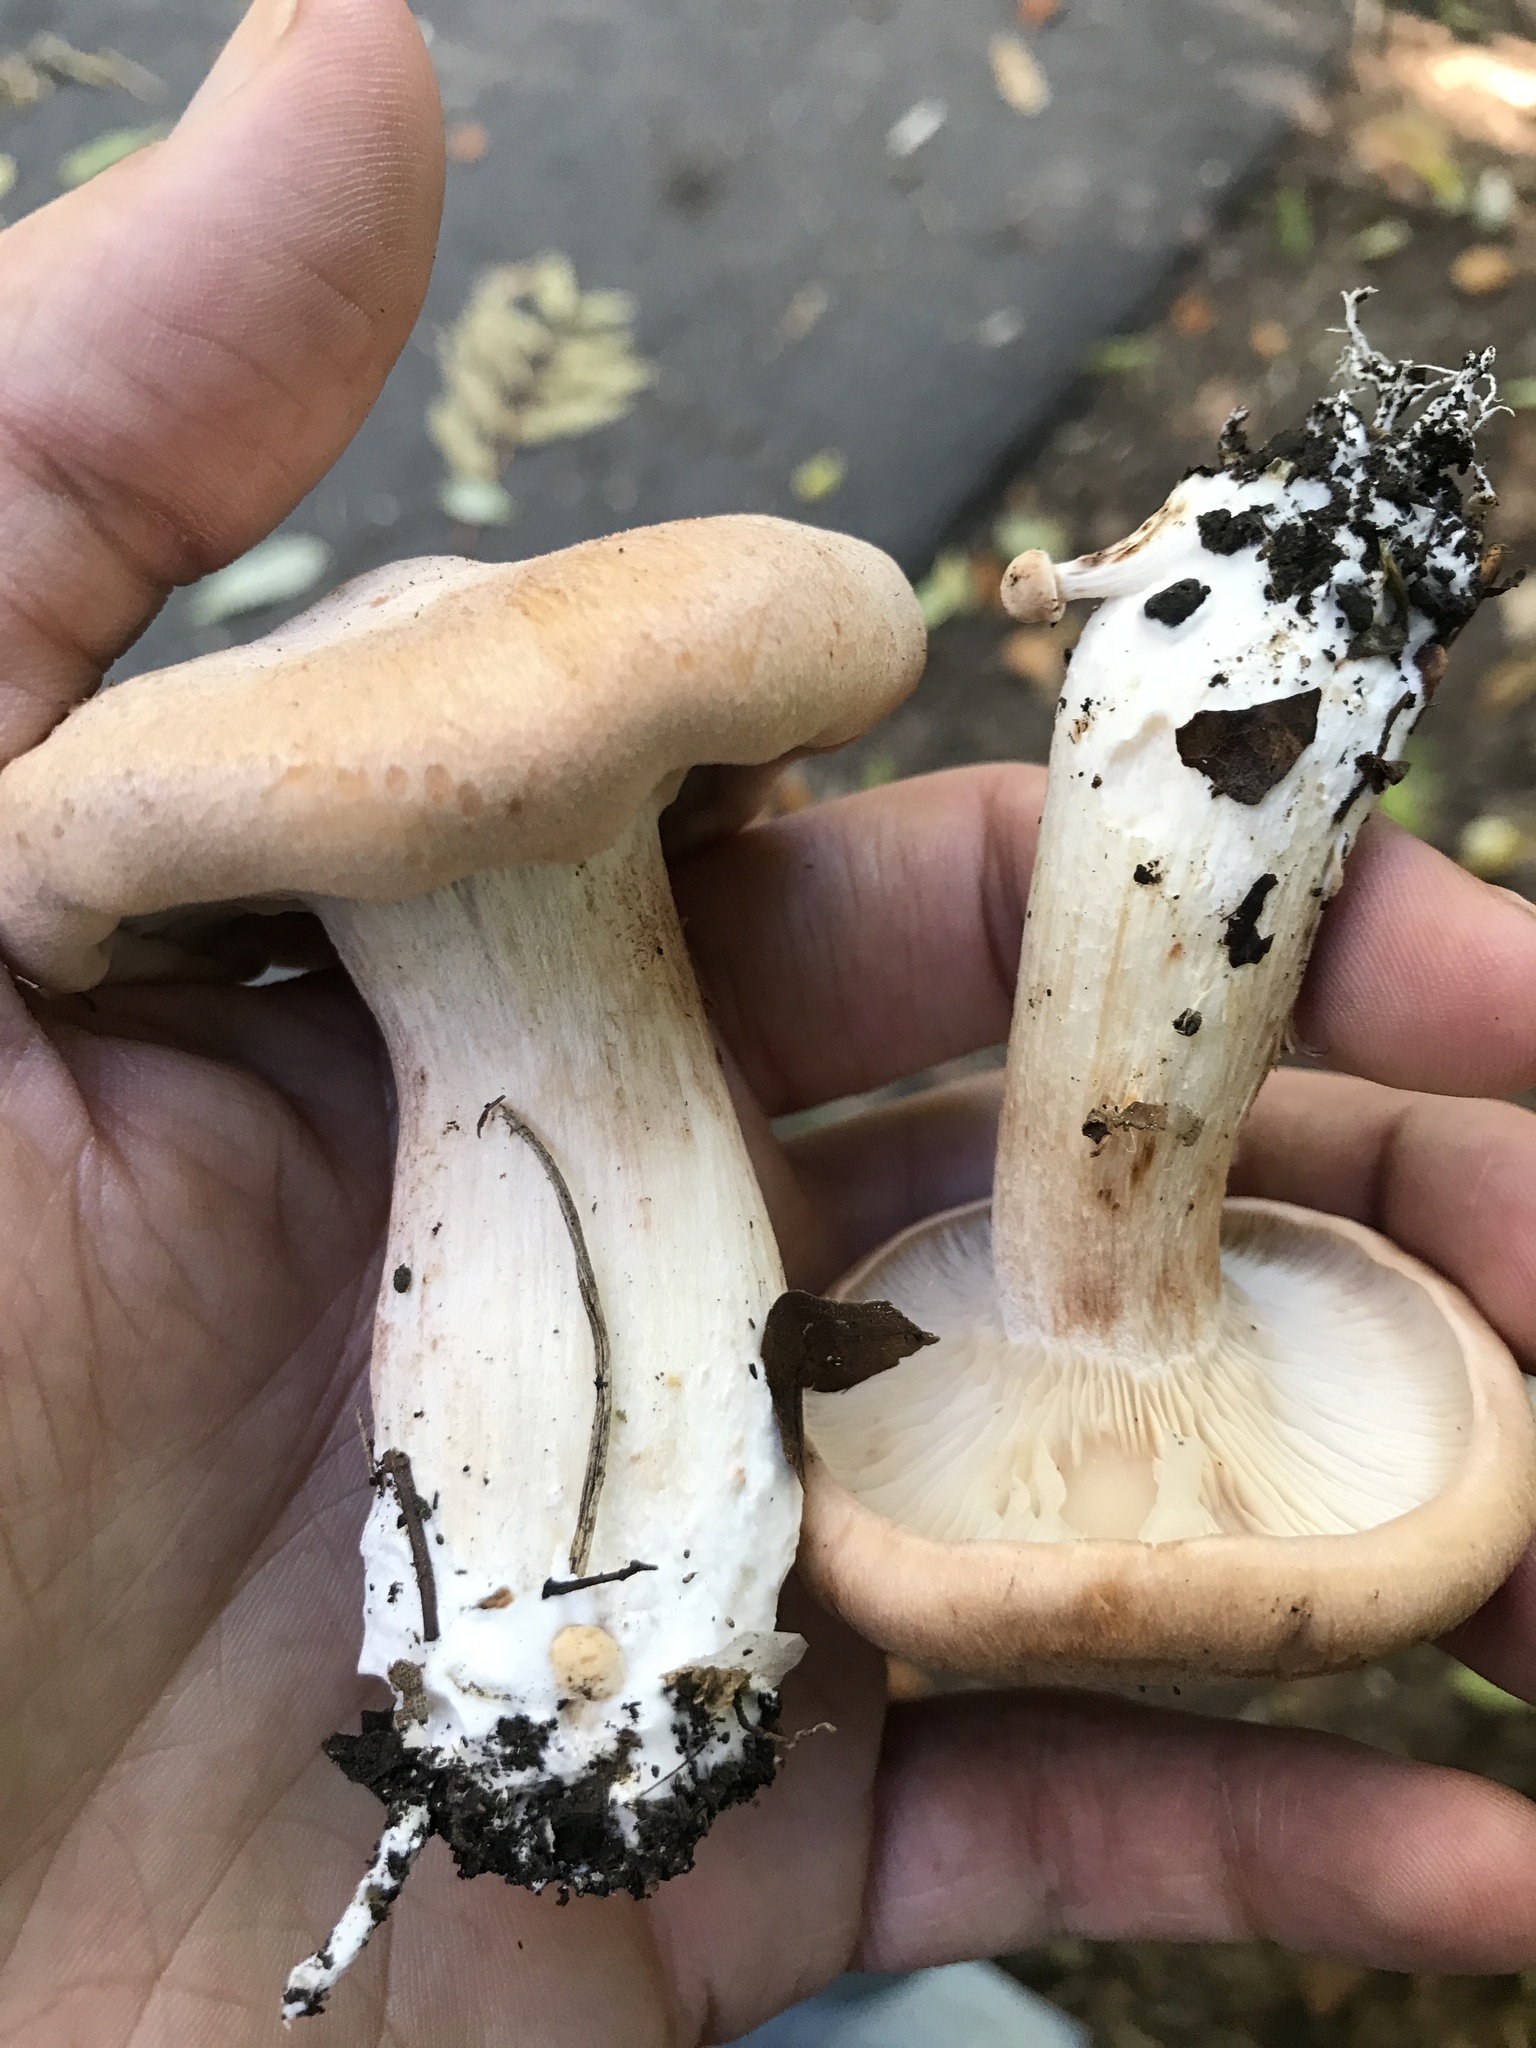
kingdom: Fungi
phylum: Basidiomycota
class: Agaricomycetes
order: Agaricales
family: Entolomataceae
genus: Clitopilus
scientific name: Clitopilus geminus
